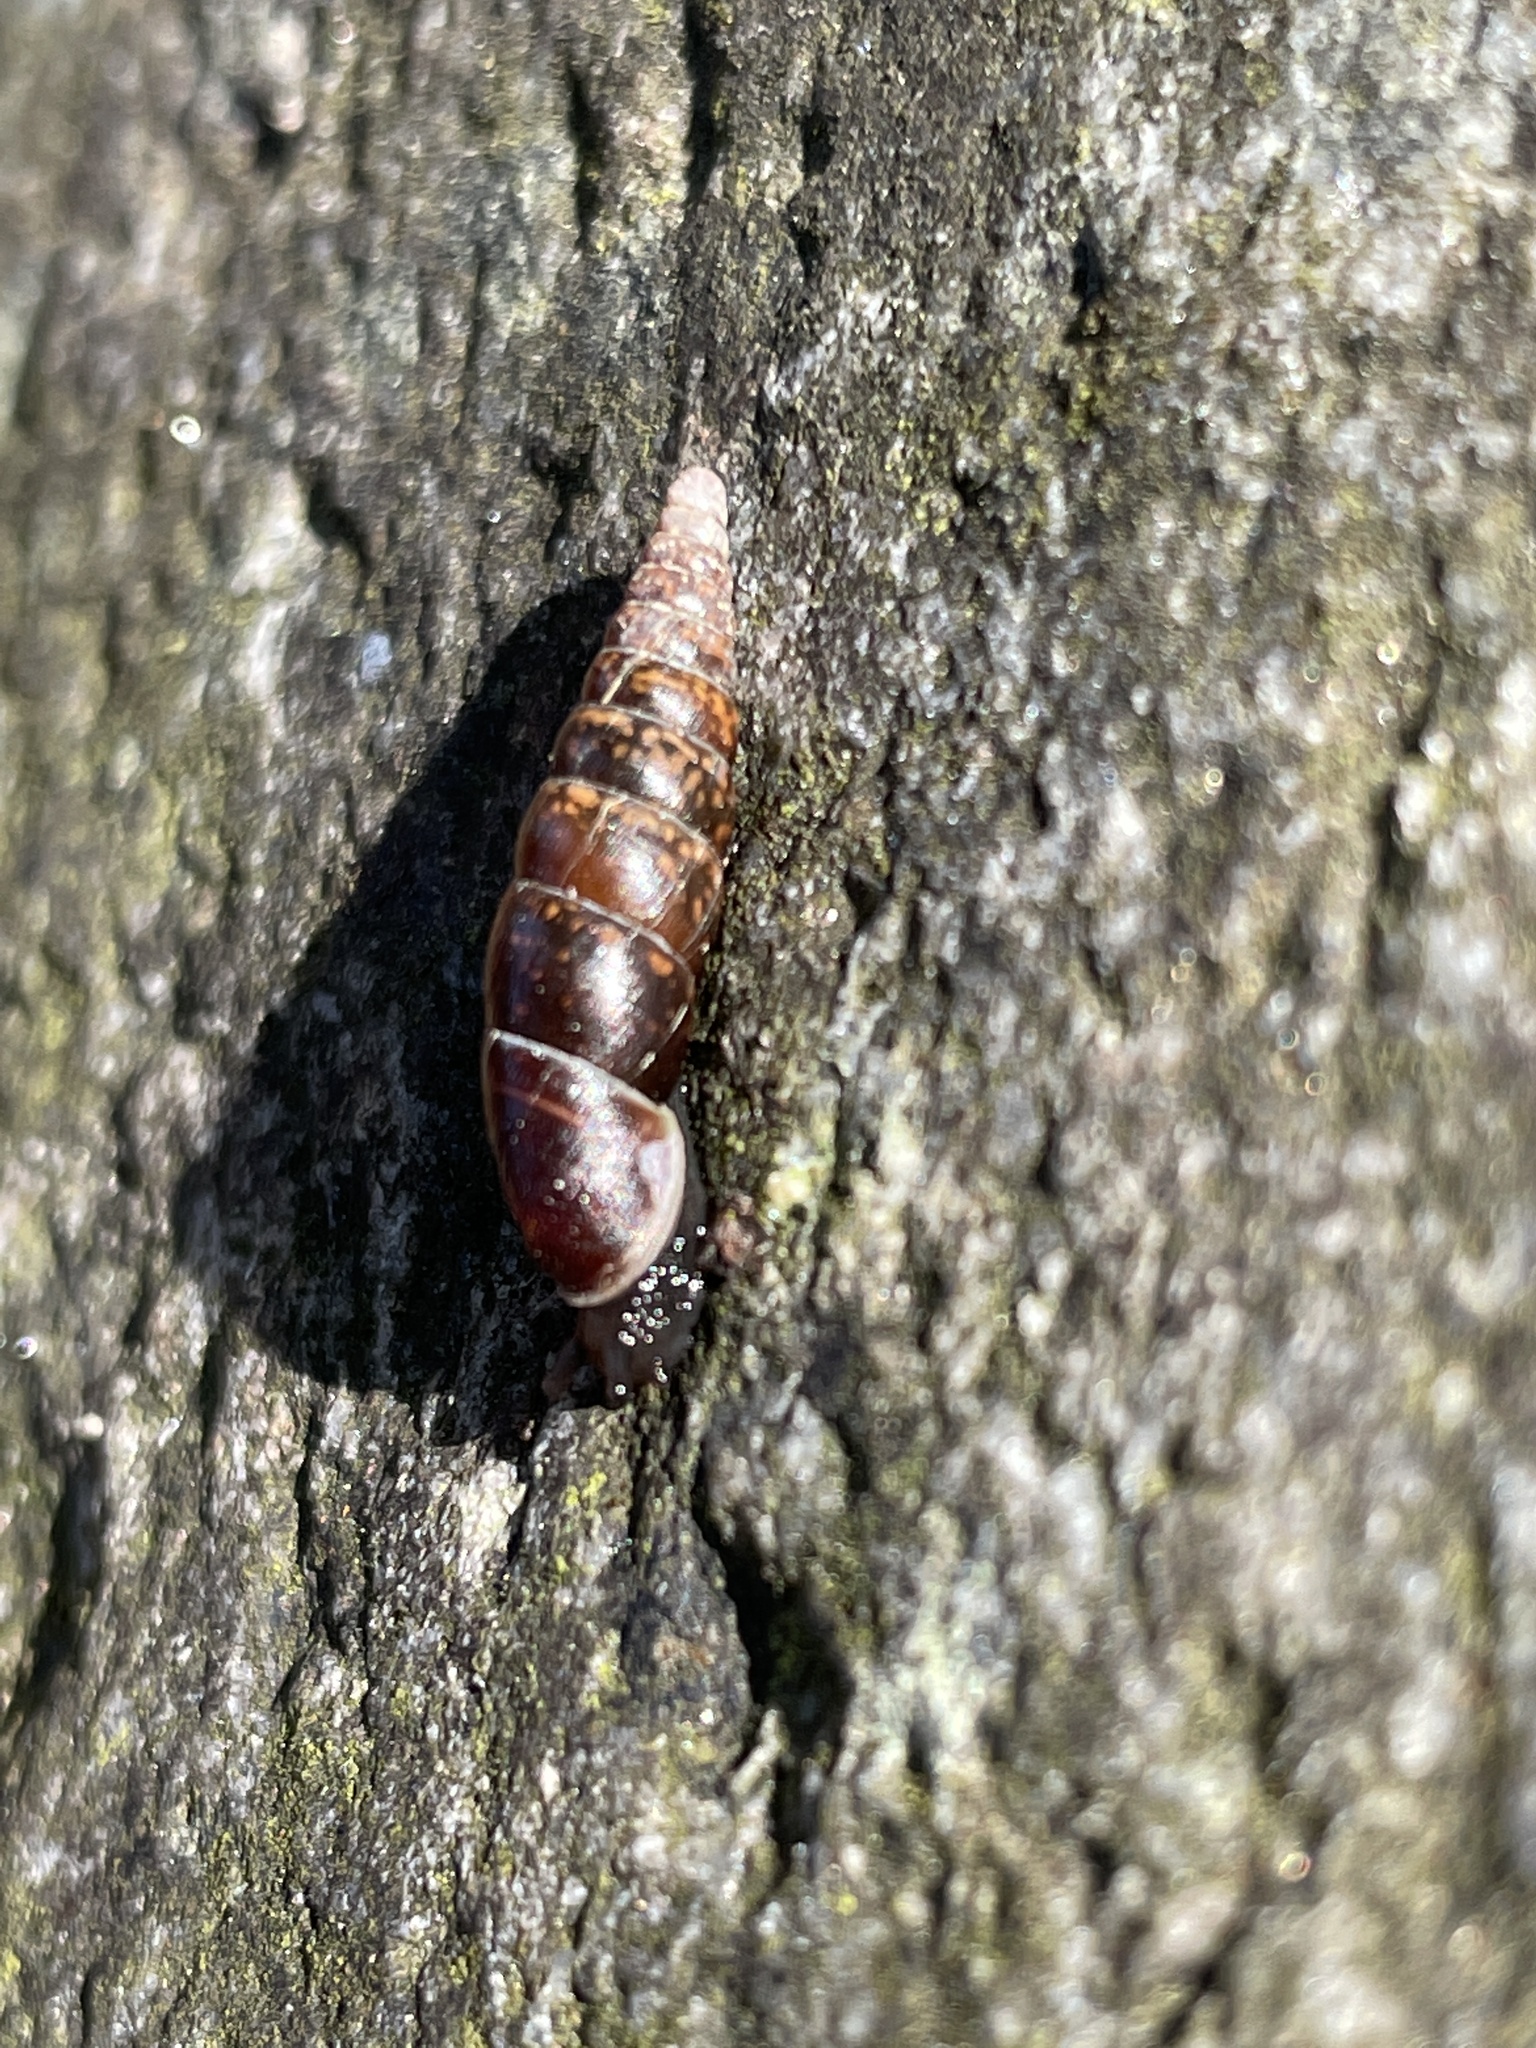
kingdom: Animalia
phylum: Mollusca
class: Gastropoda
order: Stylommatophora
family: Clausiliidae
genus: Cochlodina
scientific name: Cochlodina laminata
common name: Plaited door snail
